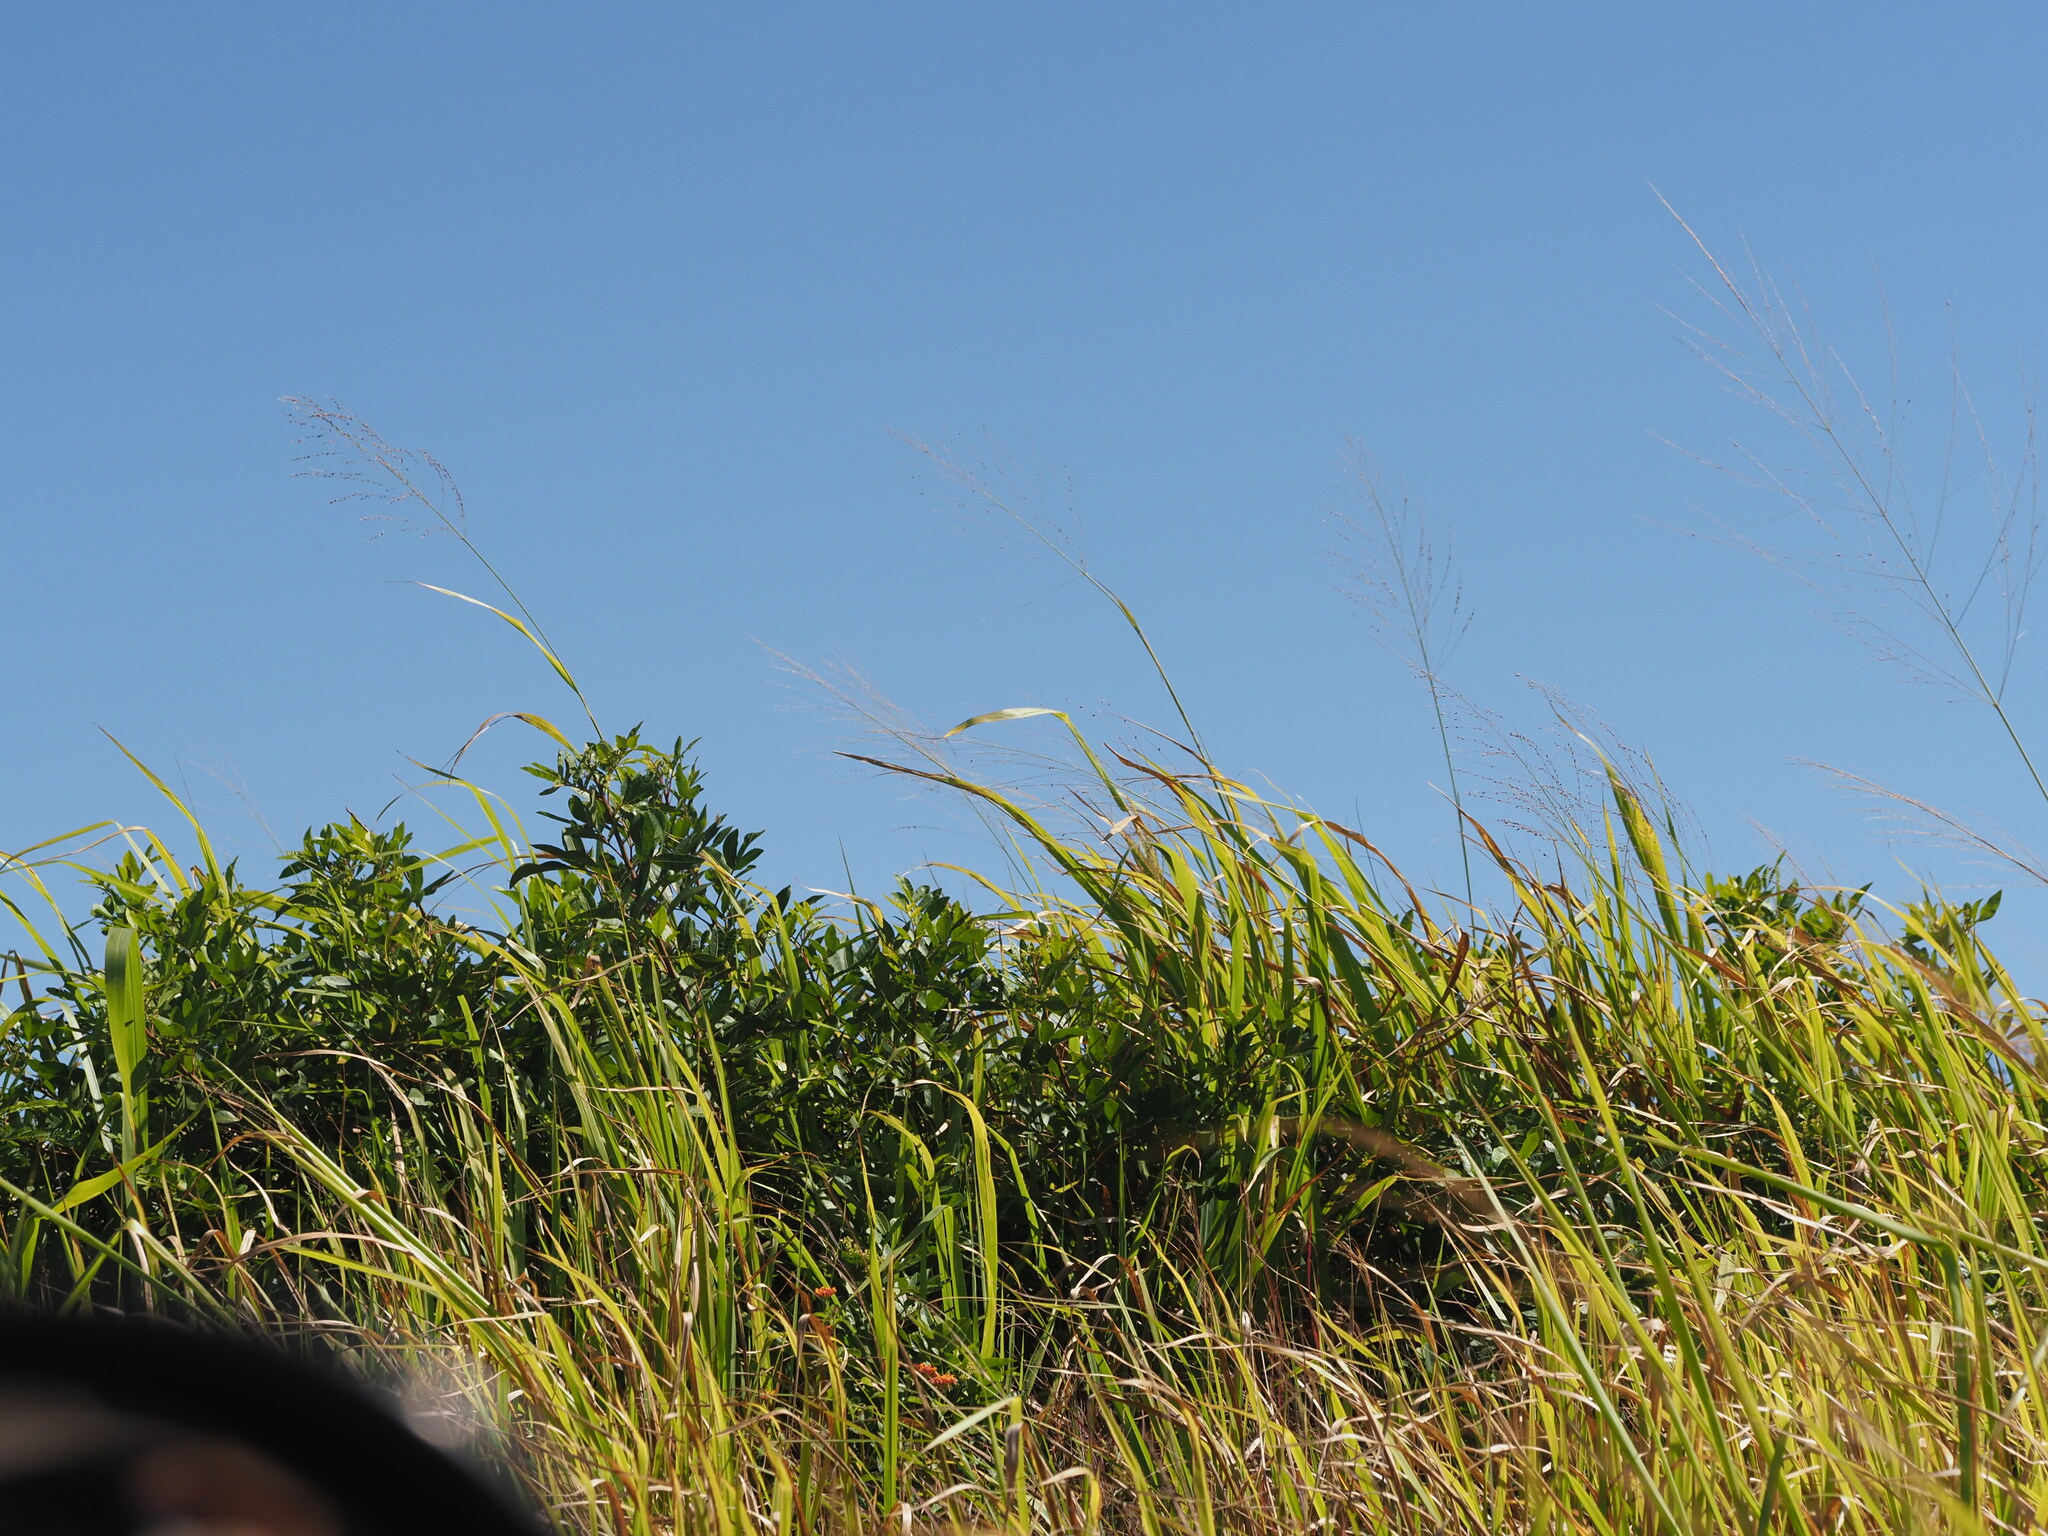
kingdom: Plantae
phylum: Tracheophyta
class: Liliopsida
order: Poales
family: Poaceae
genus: Megathyrsus
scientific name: Megathyrsus maximus
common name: Guineagrass
